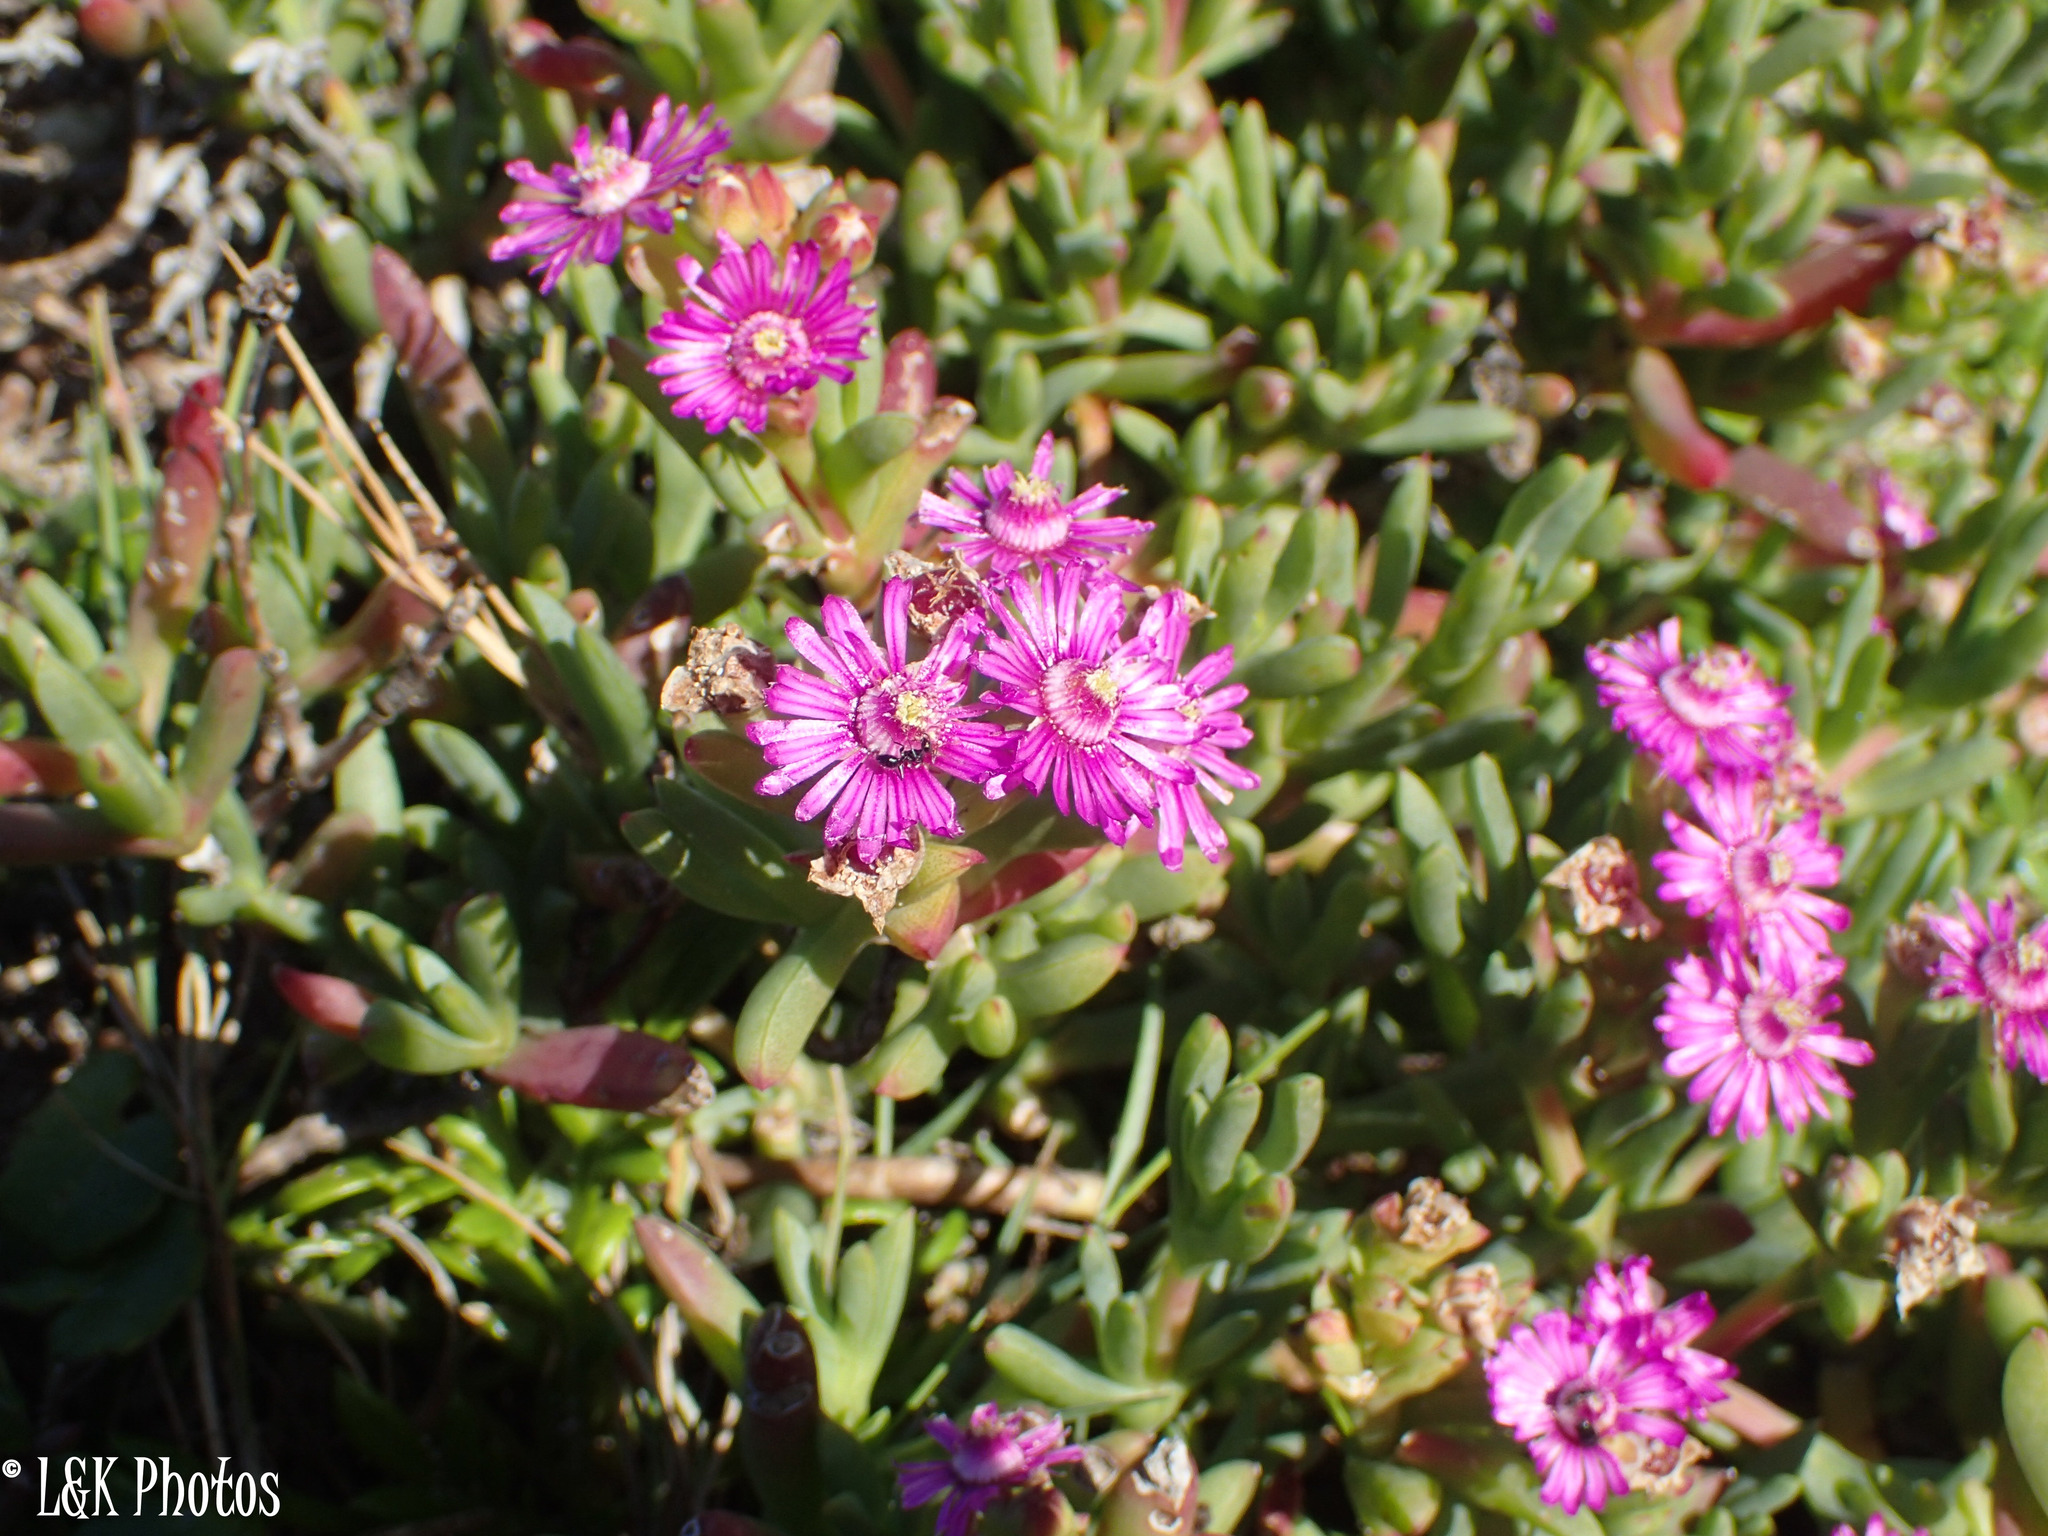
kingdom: Plantae
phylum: Tracheophyta
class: Magnoliopsida
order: Caryophyllales
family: Aizoaceae
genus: Ruschia
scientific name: Ruschia macowanii
